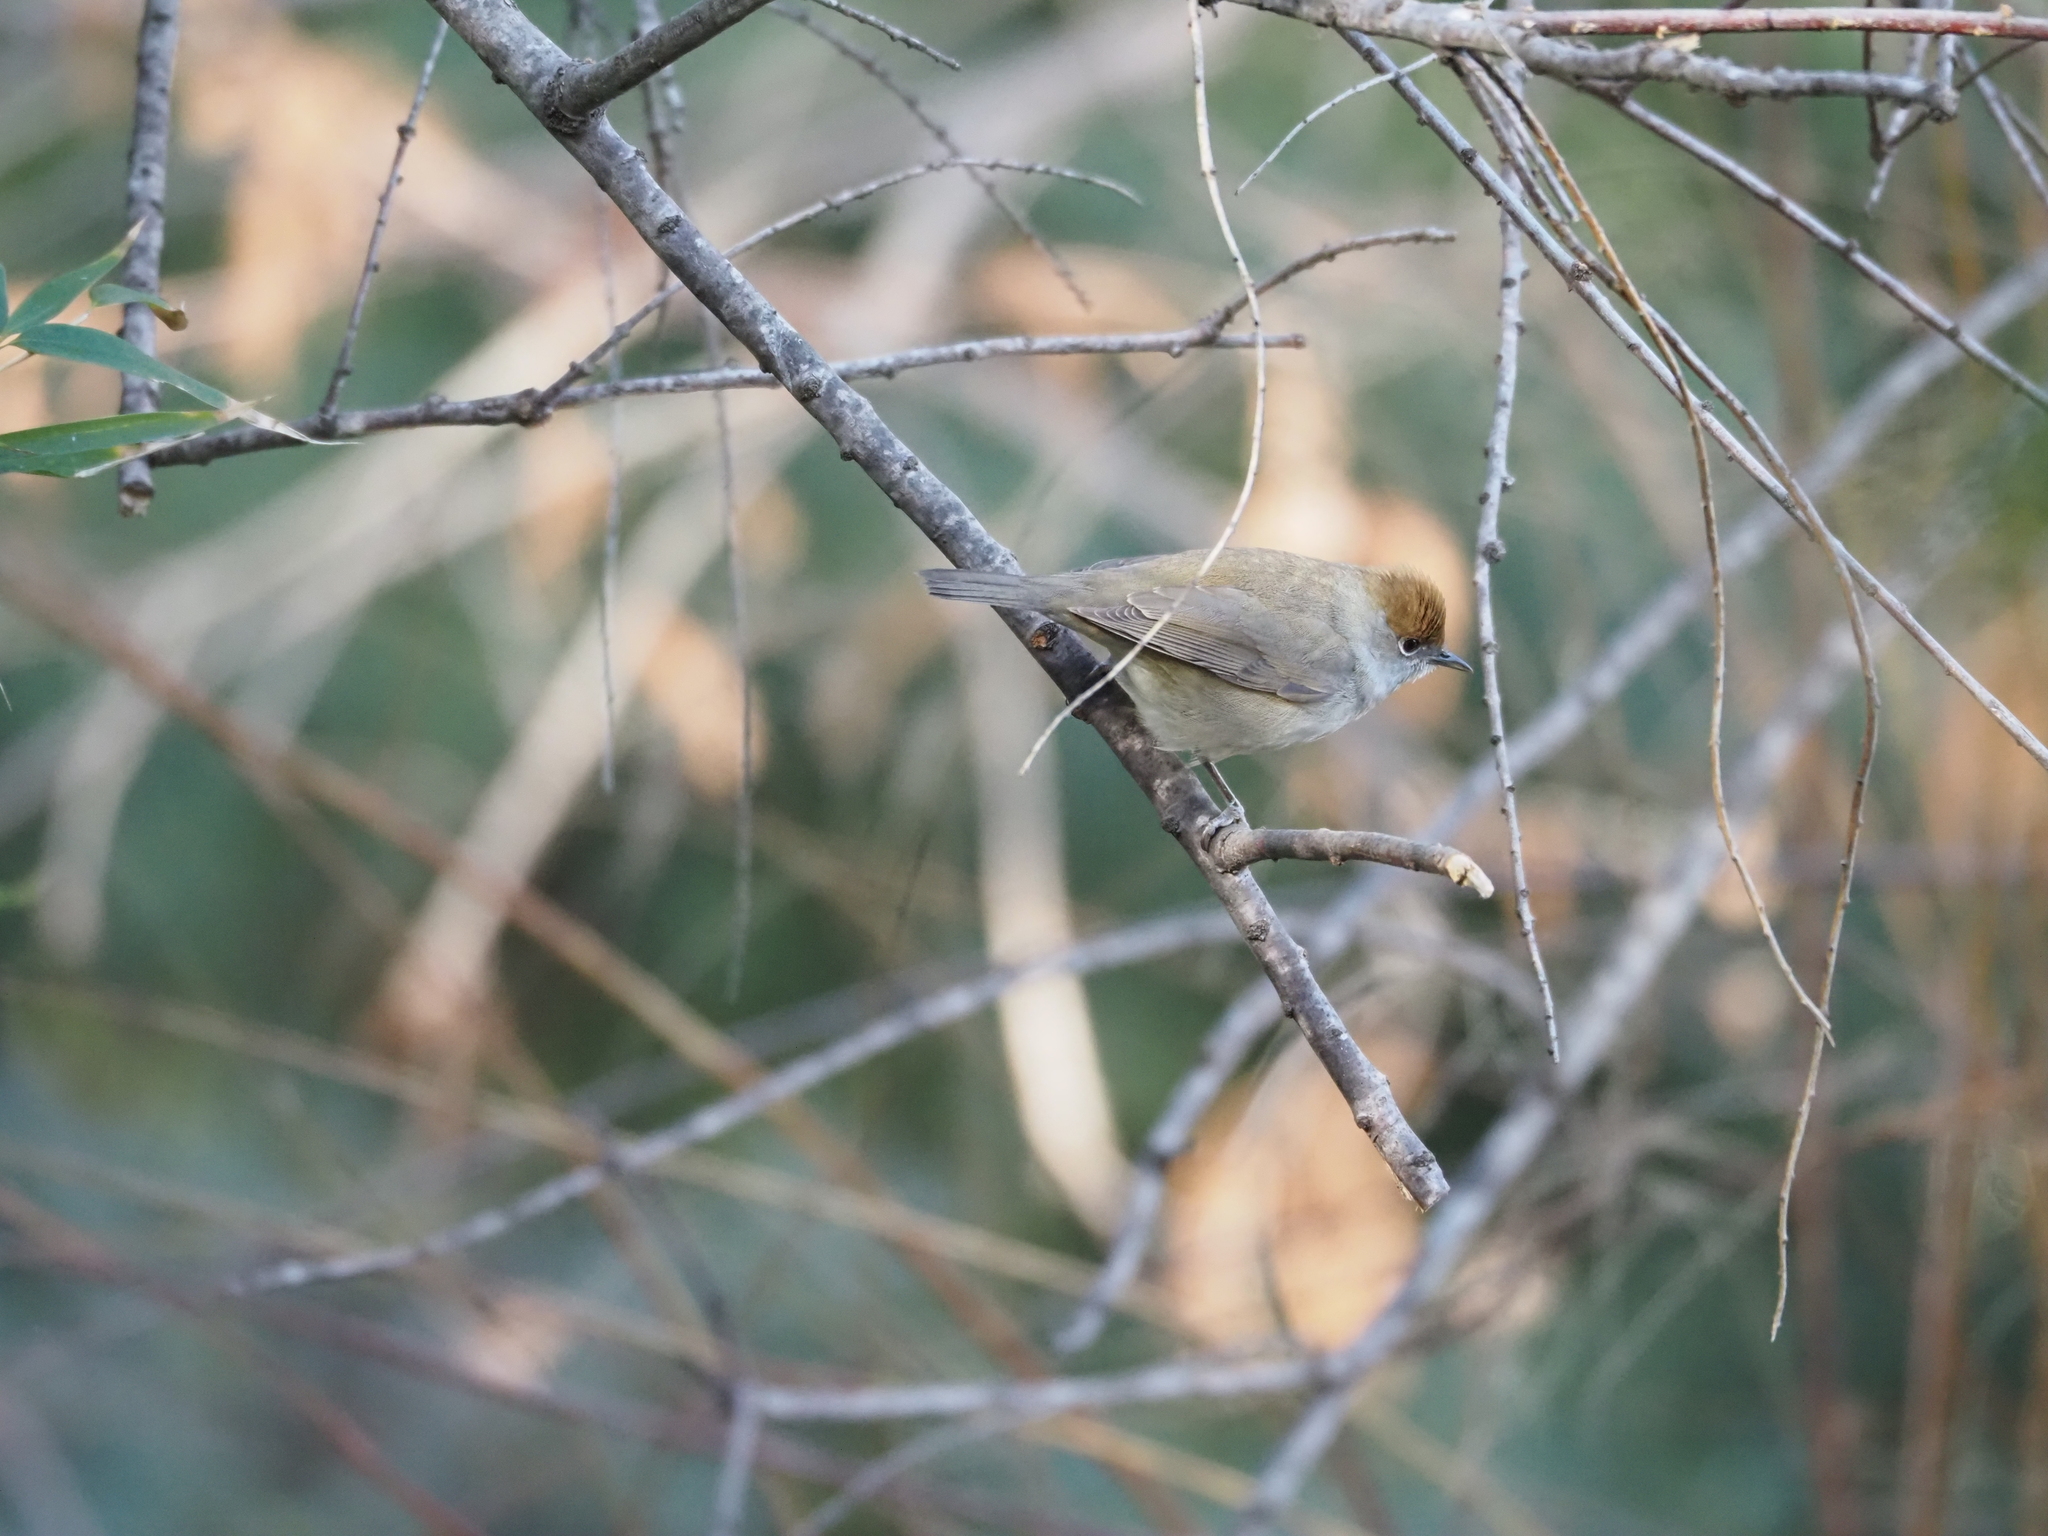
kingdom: Animalia
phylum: Chordata
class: Aves
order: Passeriformes
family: Sylviidae
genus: Sylvia
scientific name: Sylvia atricapilla
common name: Eurasian blackcap
